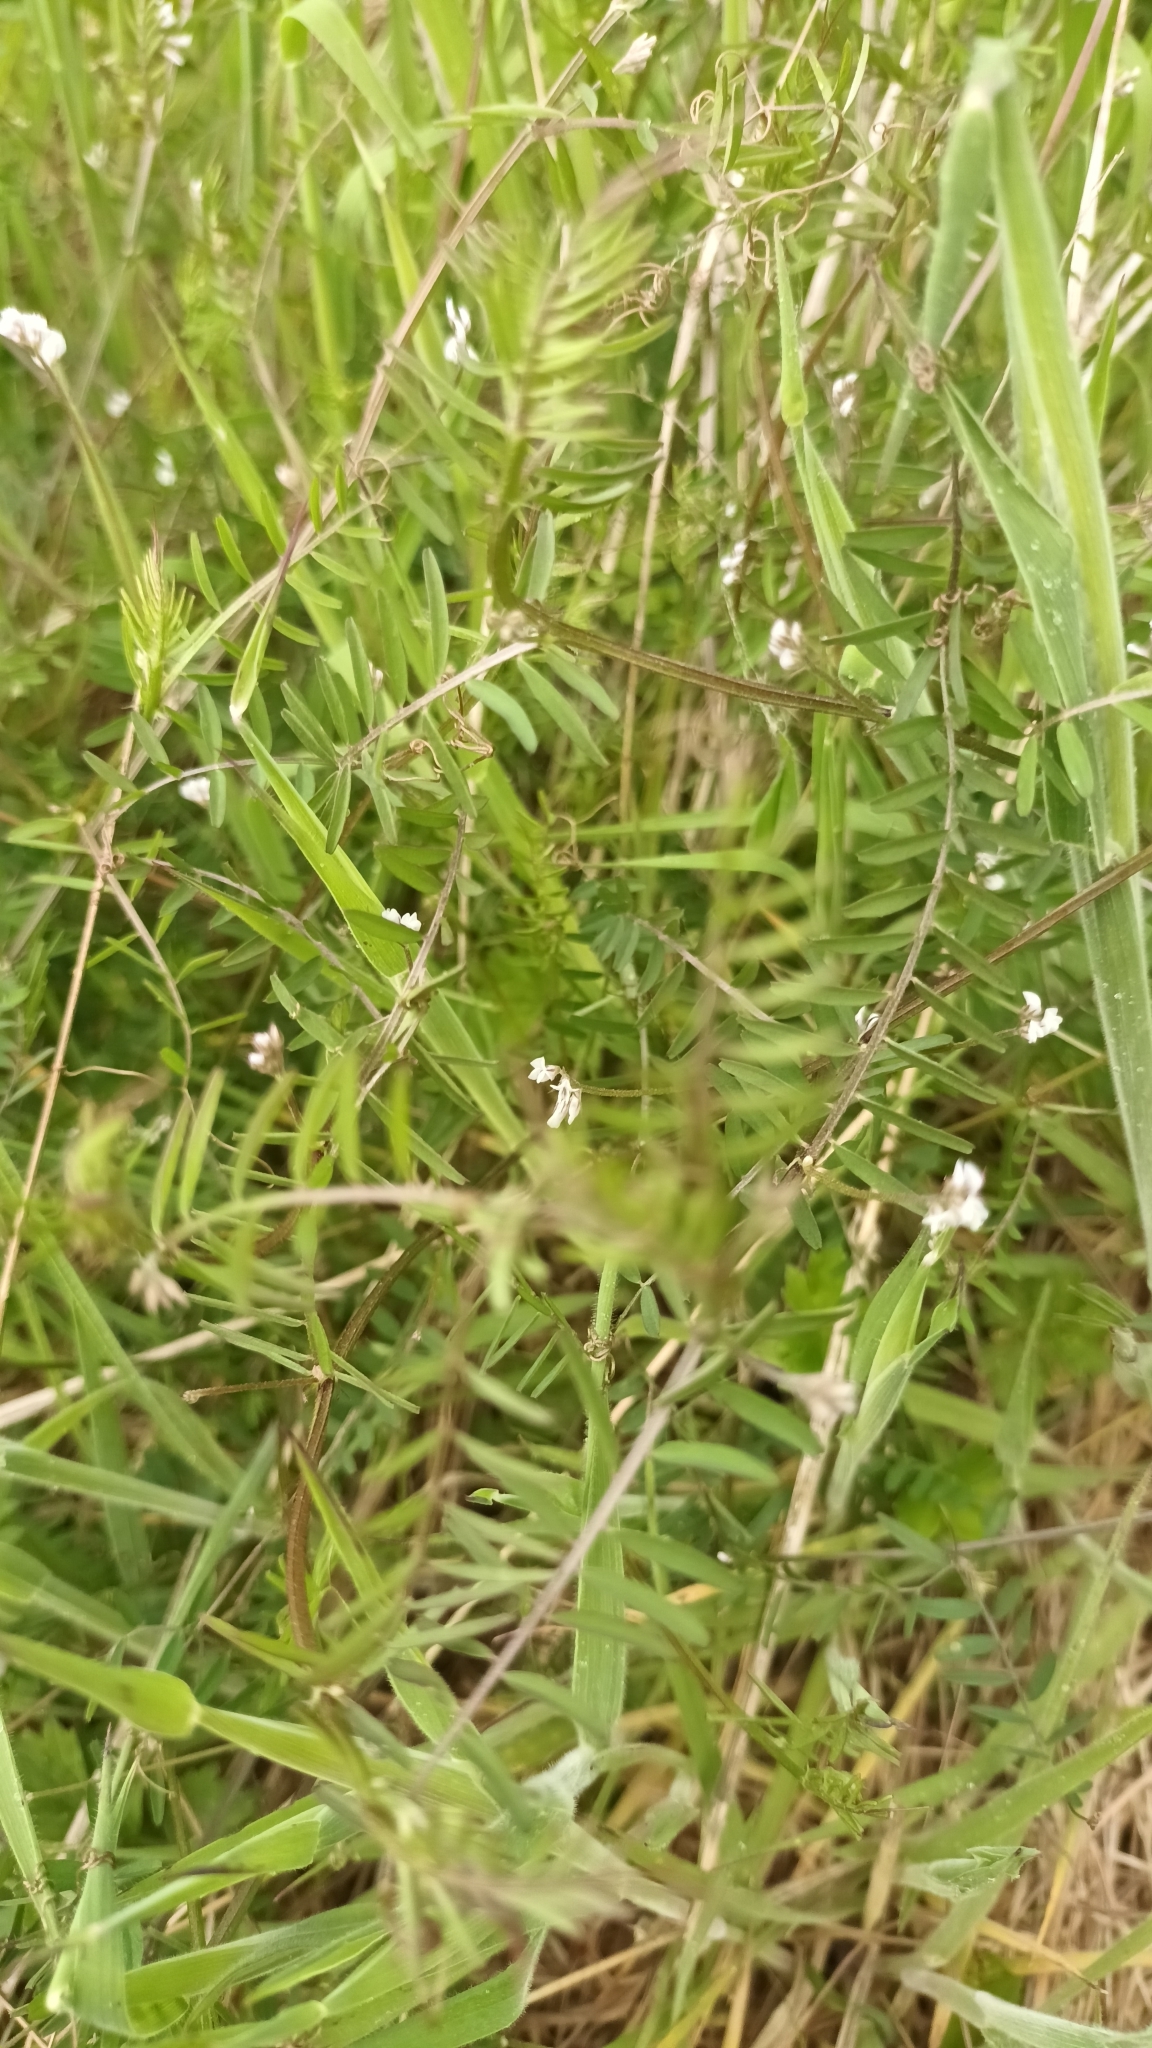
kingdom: Plantae
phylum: Tracheophyta
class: Magnoliopsida
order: Fabales
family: Fabaceae
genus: Vicia
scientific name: Vicia hirsuta
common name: Tiny vetch
